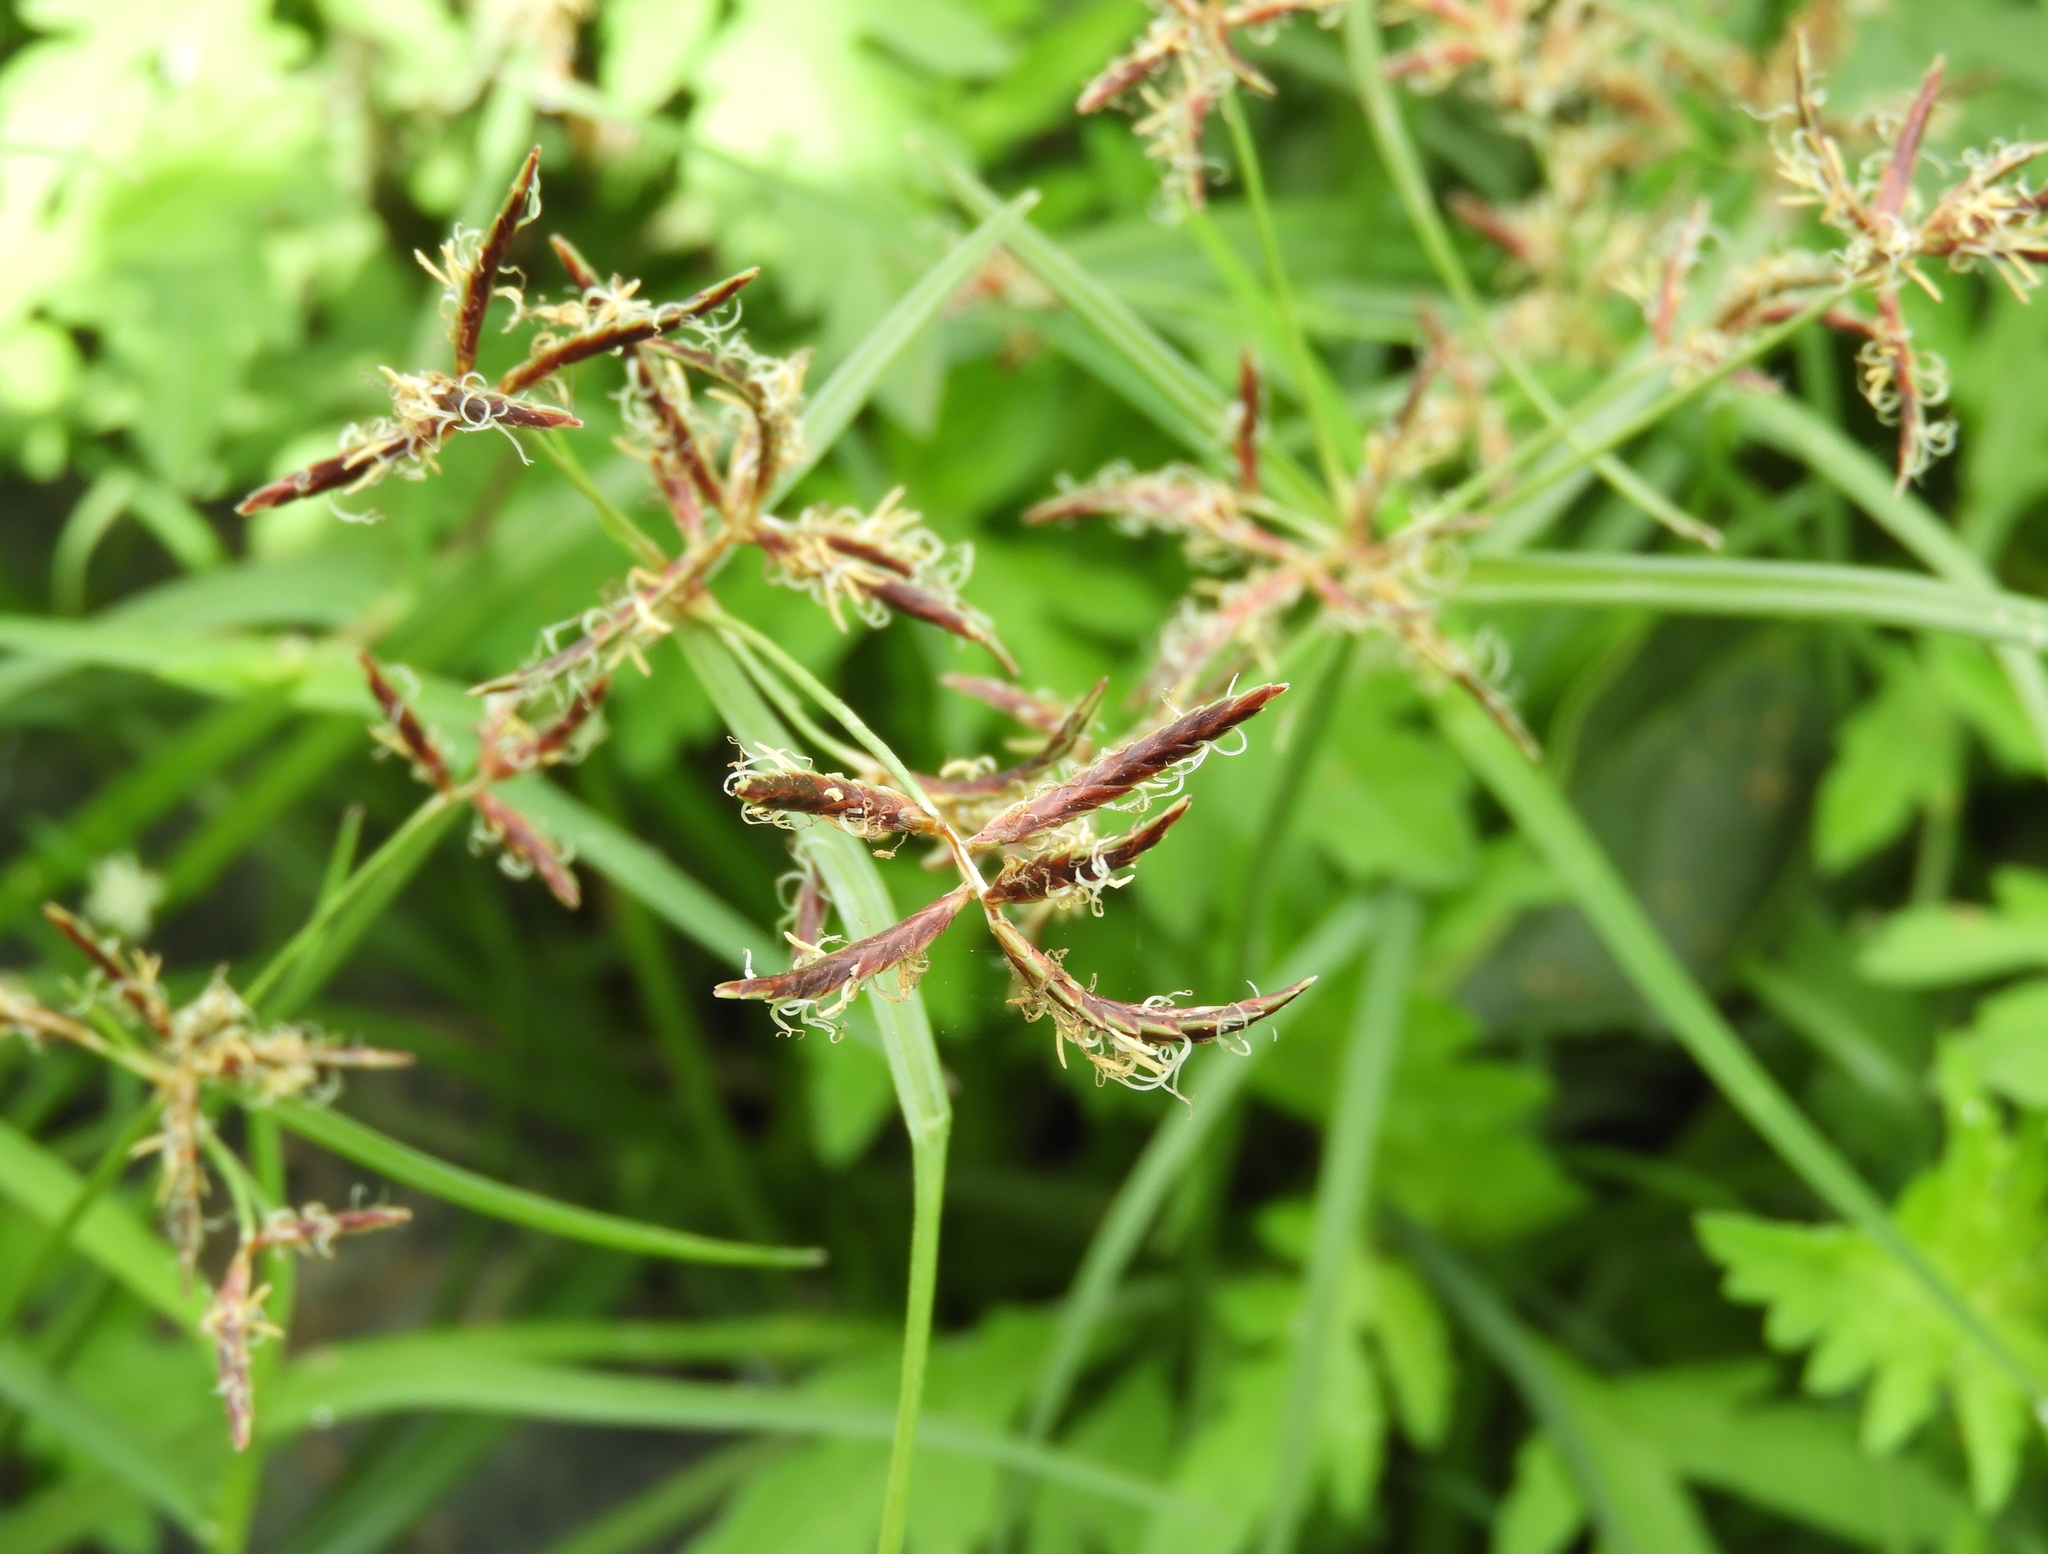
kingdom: Plantae
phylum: Tracheophyta
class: Liliopsida
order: Poales
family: Cyperaceae
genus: Cyperus
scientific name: Cyperus rotundus
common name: Nutgrass
